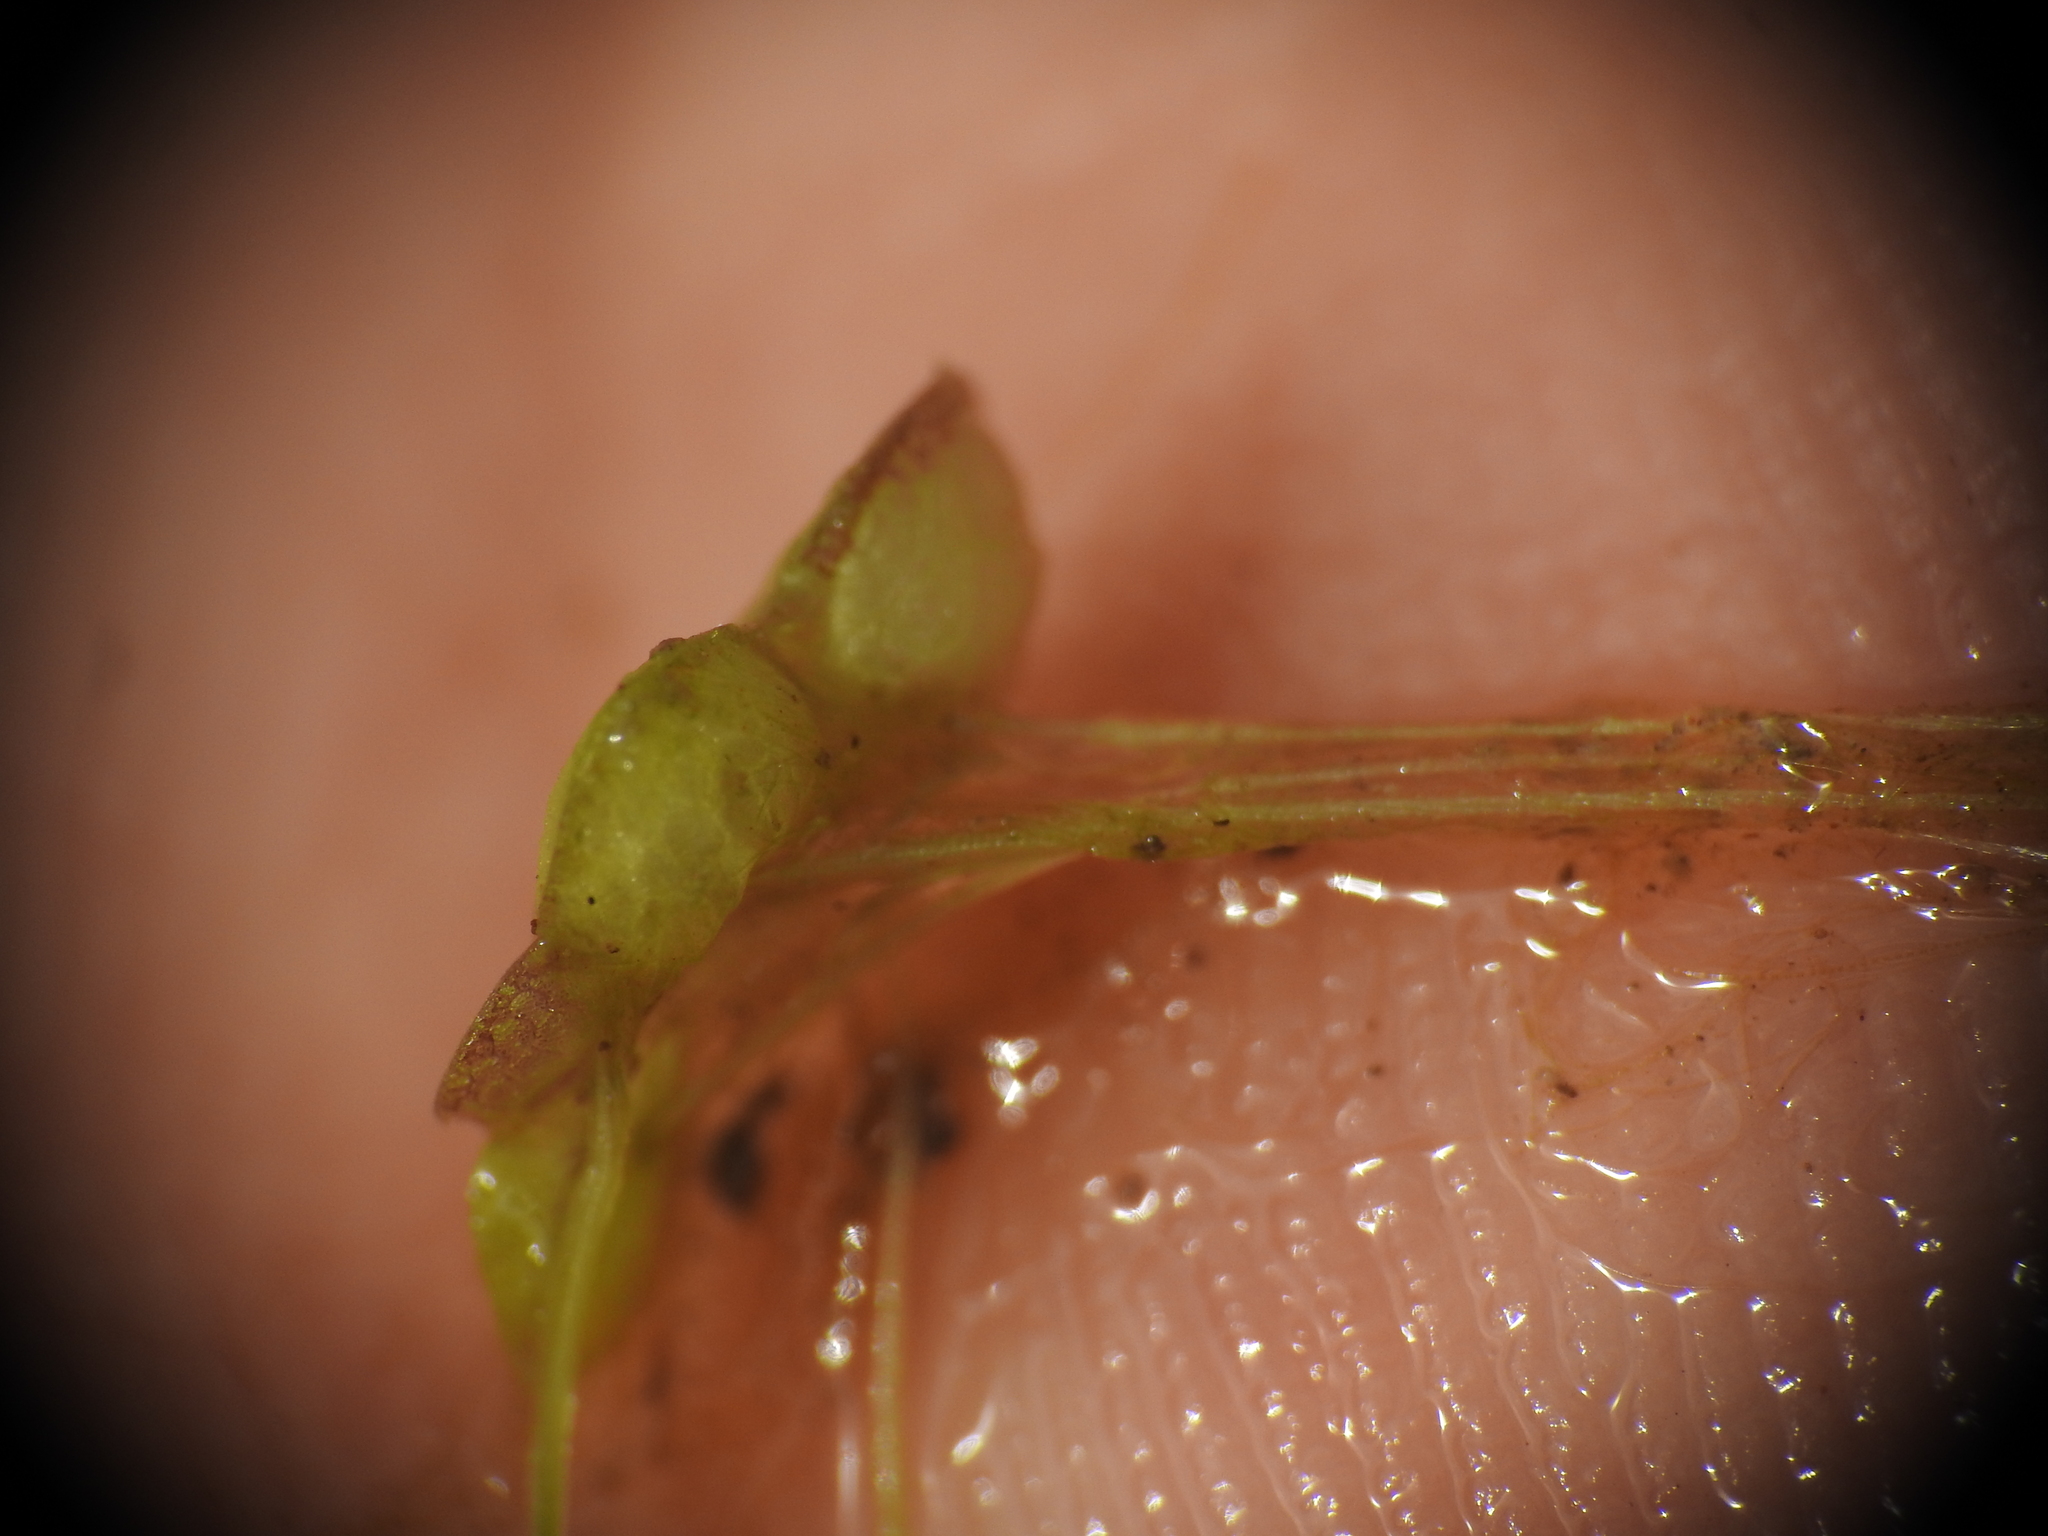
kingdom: Plantae
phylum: Tracheophyta
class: Liliopsida
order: Alismatales
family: Araceae
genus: Lemna
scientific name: Lemna gibba
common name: Fat duckweed
